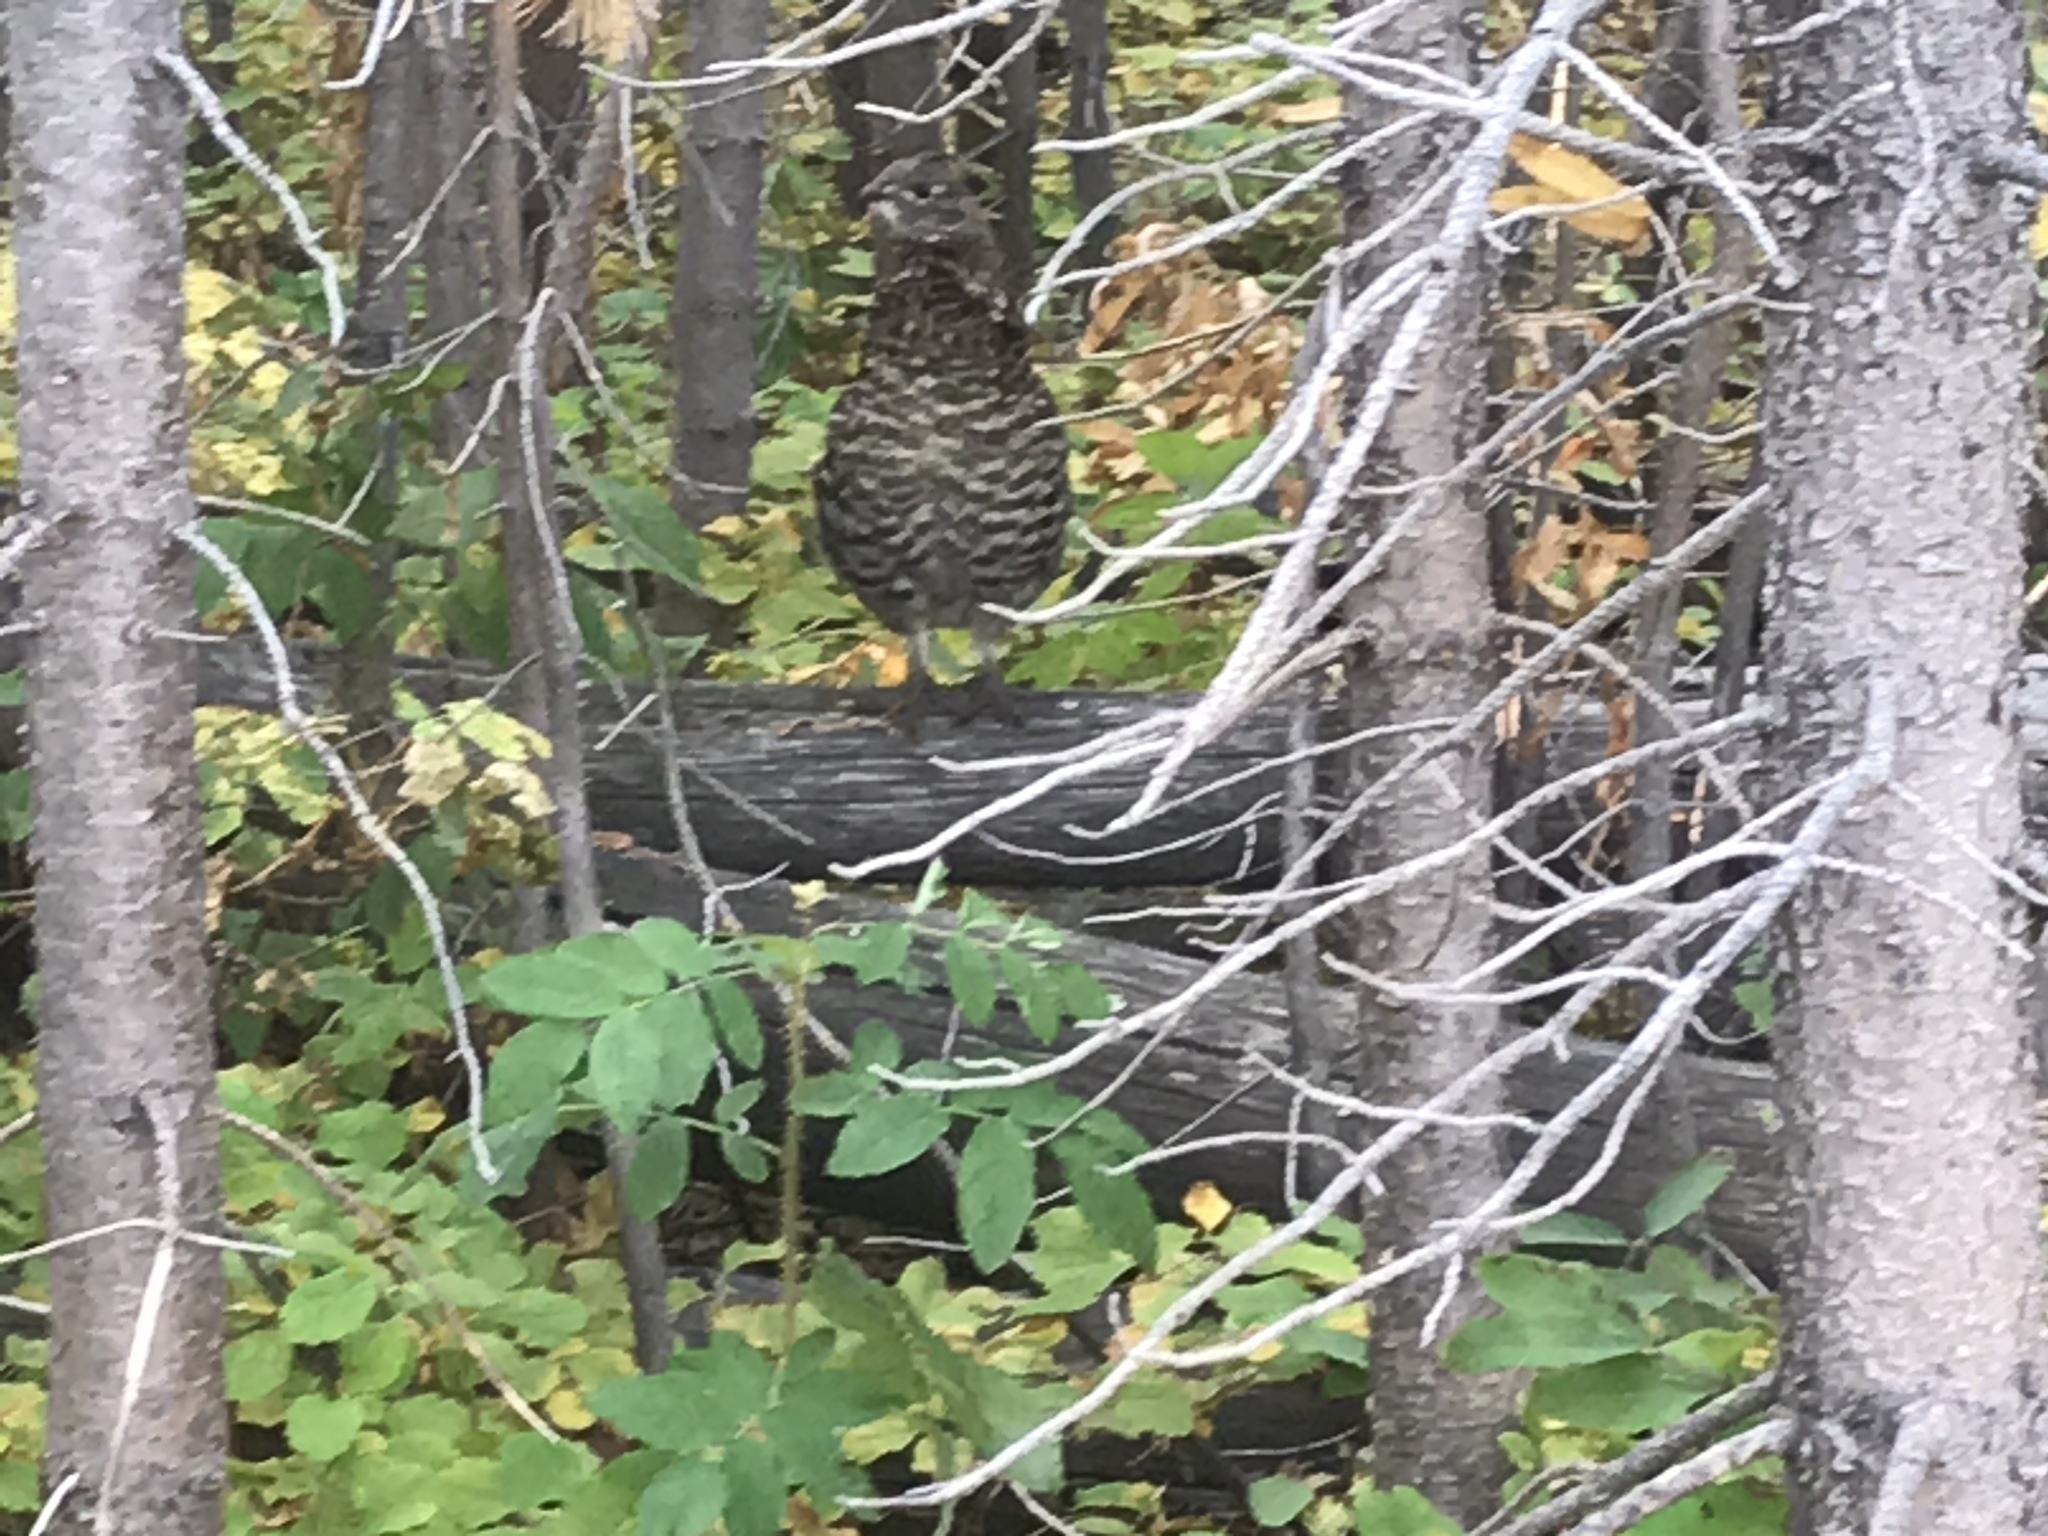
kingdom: Animalia
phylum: Chordata
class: Aves
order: Galliformes
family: Phasianidae
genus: Bonasa
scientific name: Bonasa umbellus
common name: Ruffed grouse
